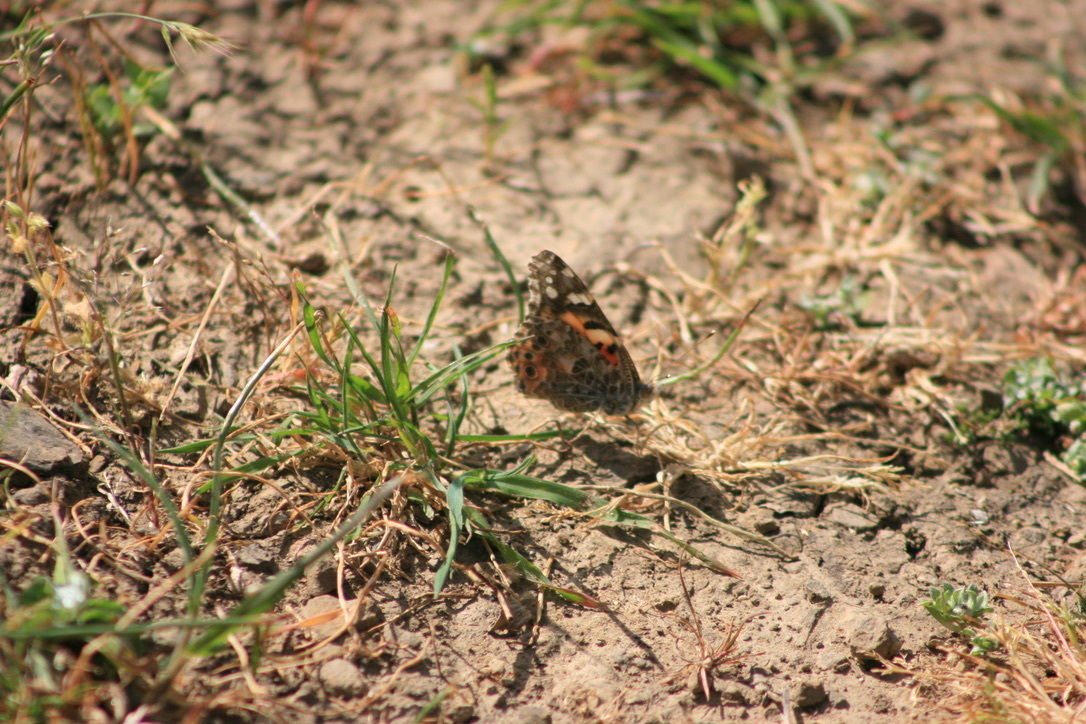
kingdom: Animalia
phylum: Arthropoda
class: Insecta
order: Lepidoptera
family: Nymphalidae
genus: Vanessa
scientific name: Vanessa cardui
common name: Painted lady
